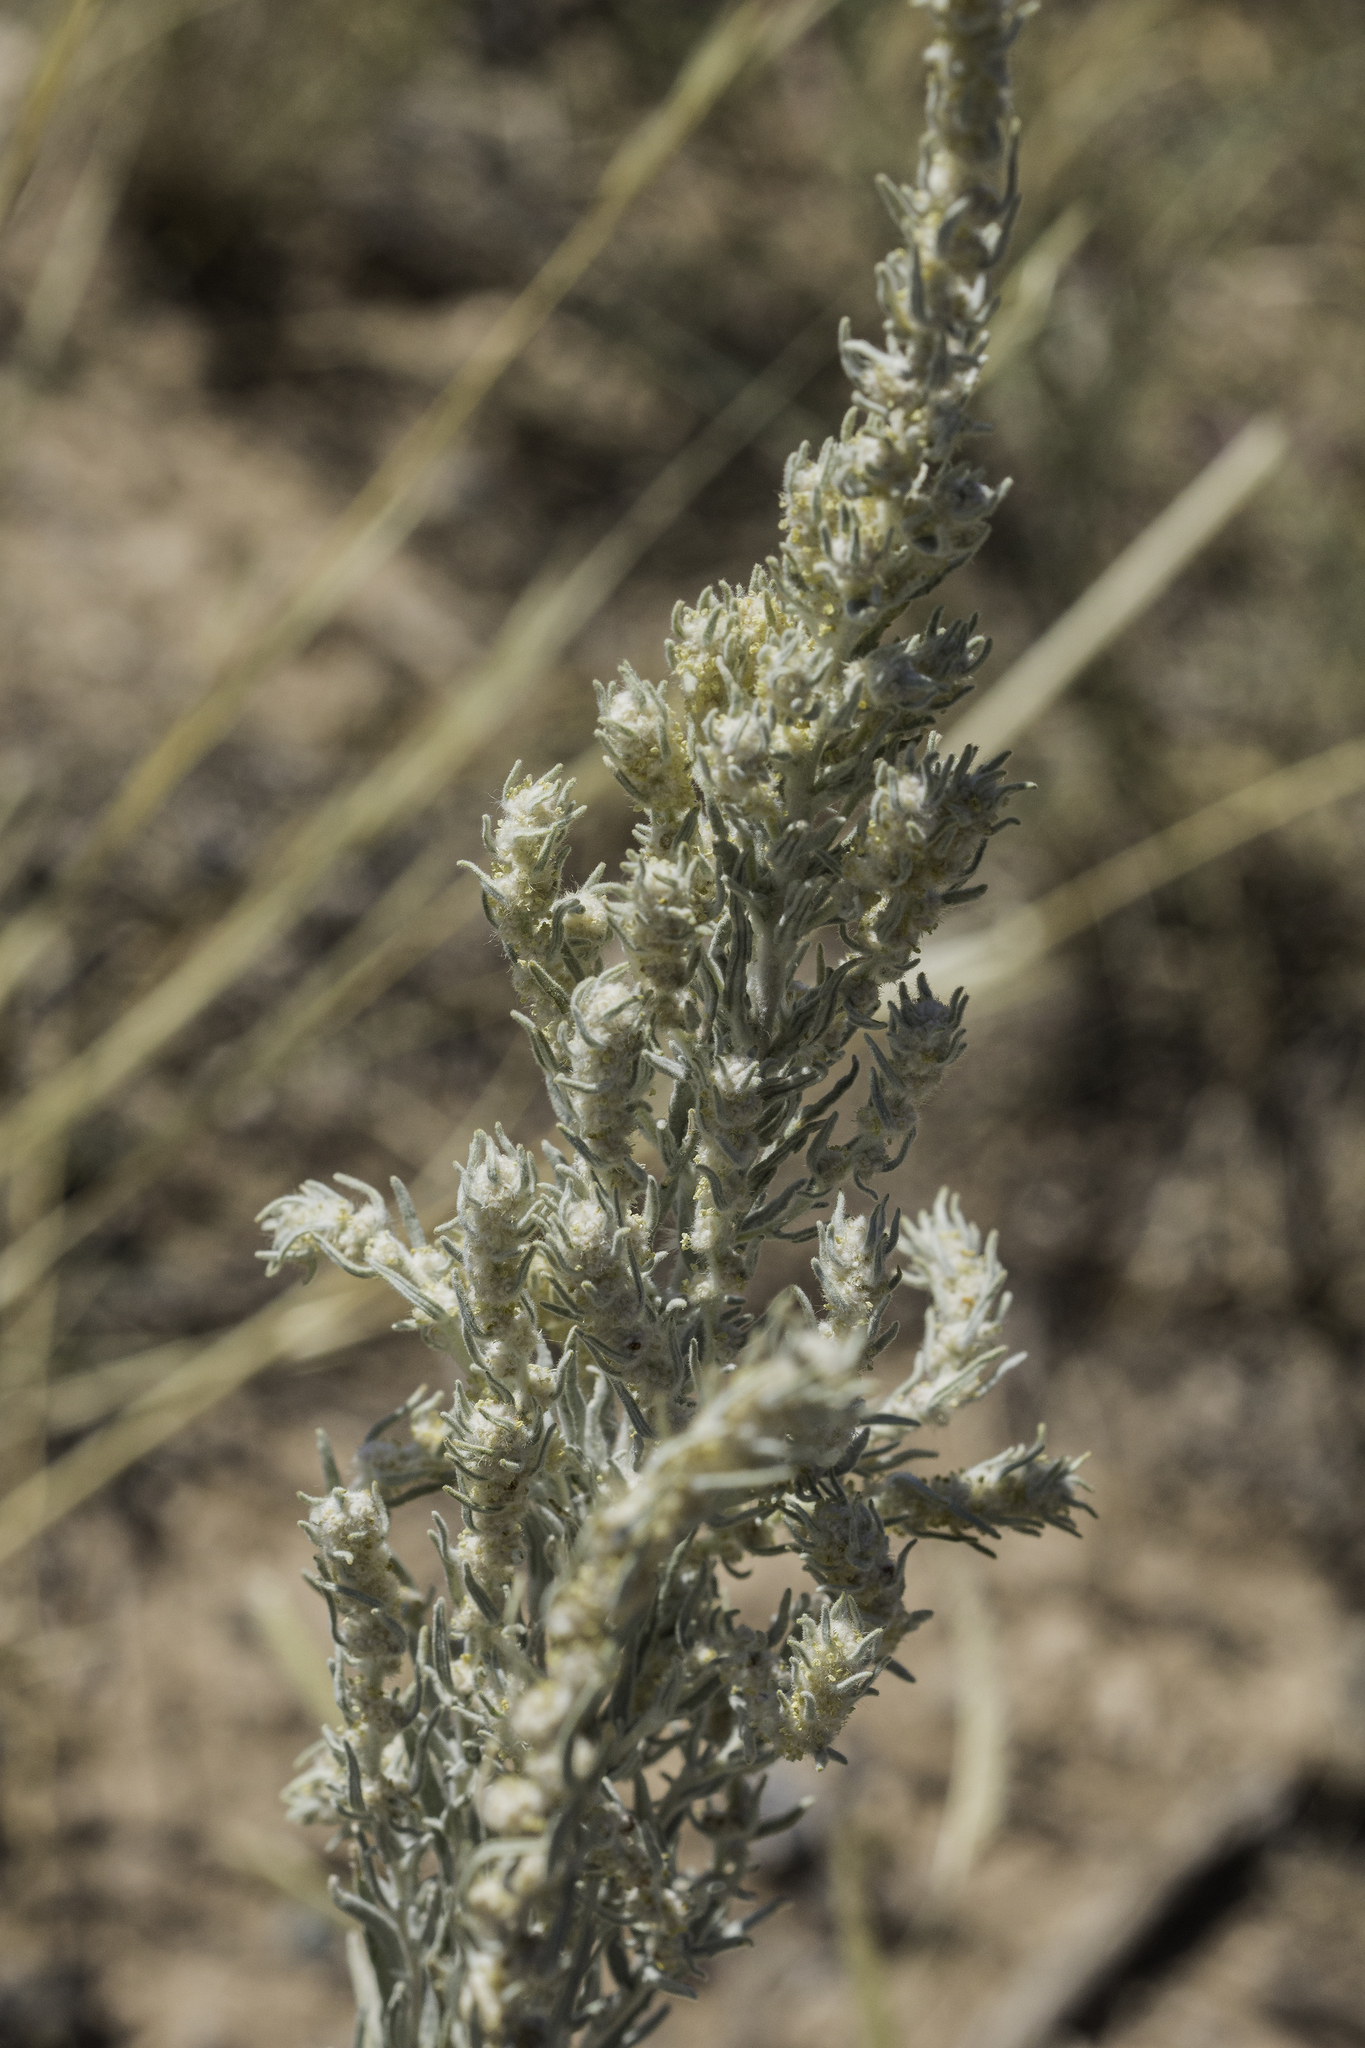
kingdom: Plantae
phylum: Tracheophyta
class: Magnoliopsida
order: Caryophyllales
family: Amaranthaceae
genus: Krascheninnikovia
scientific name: Krascheninnikovia lanata
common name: Winterfat
